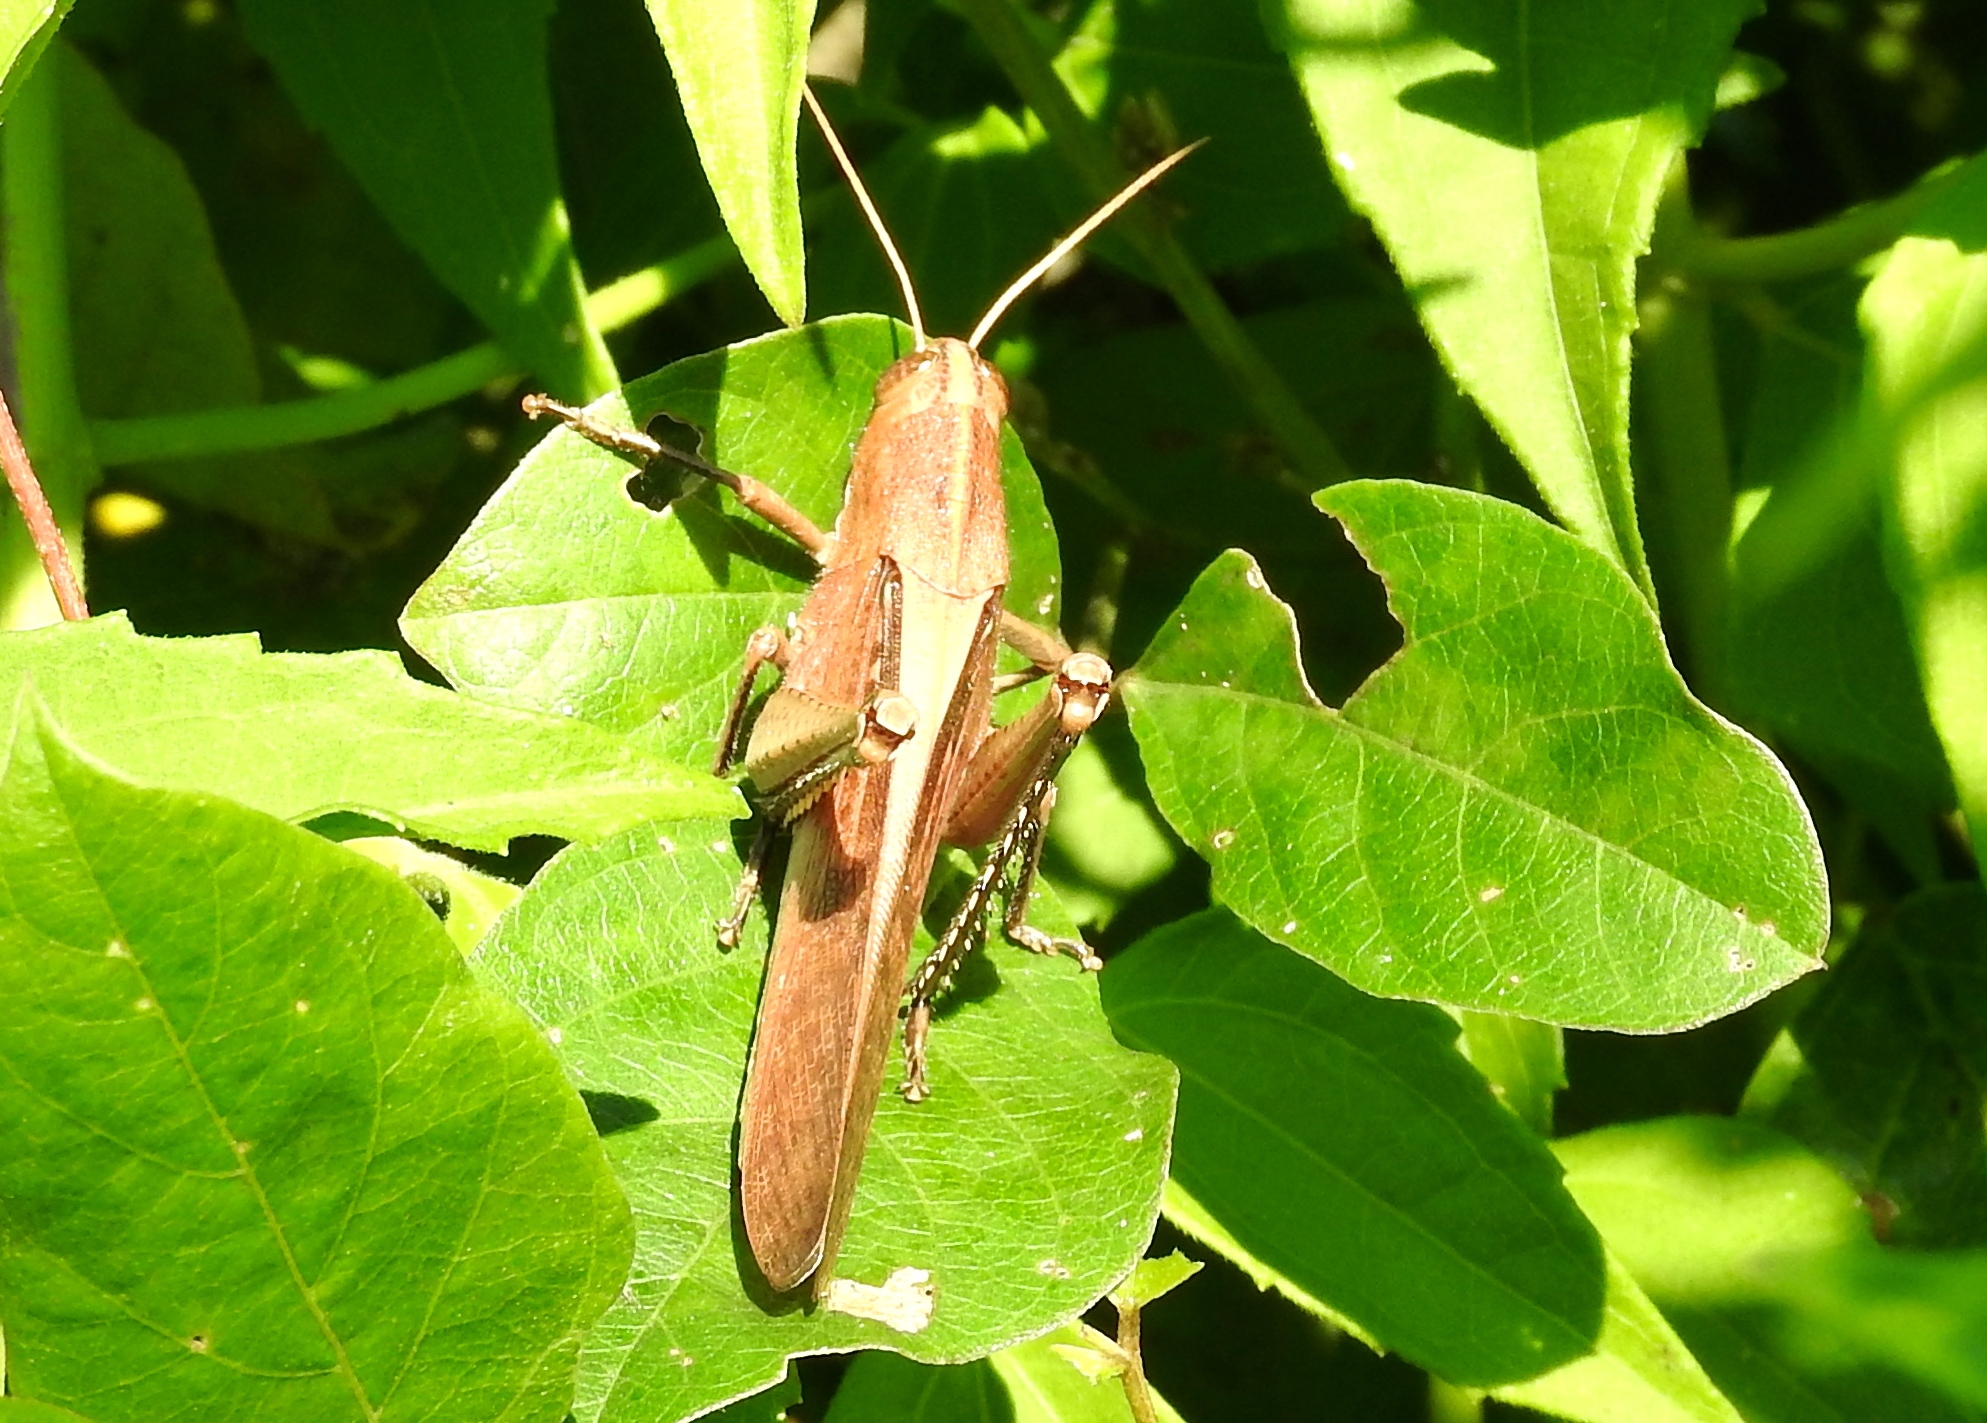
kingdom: Animalia
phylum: Arthropoda
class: Insecta
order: Orthoptera
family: Acrididae
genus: Schistocerca
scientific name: Schistocerca camerata
